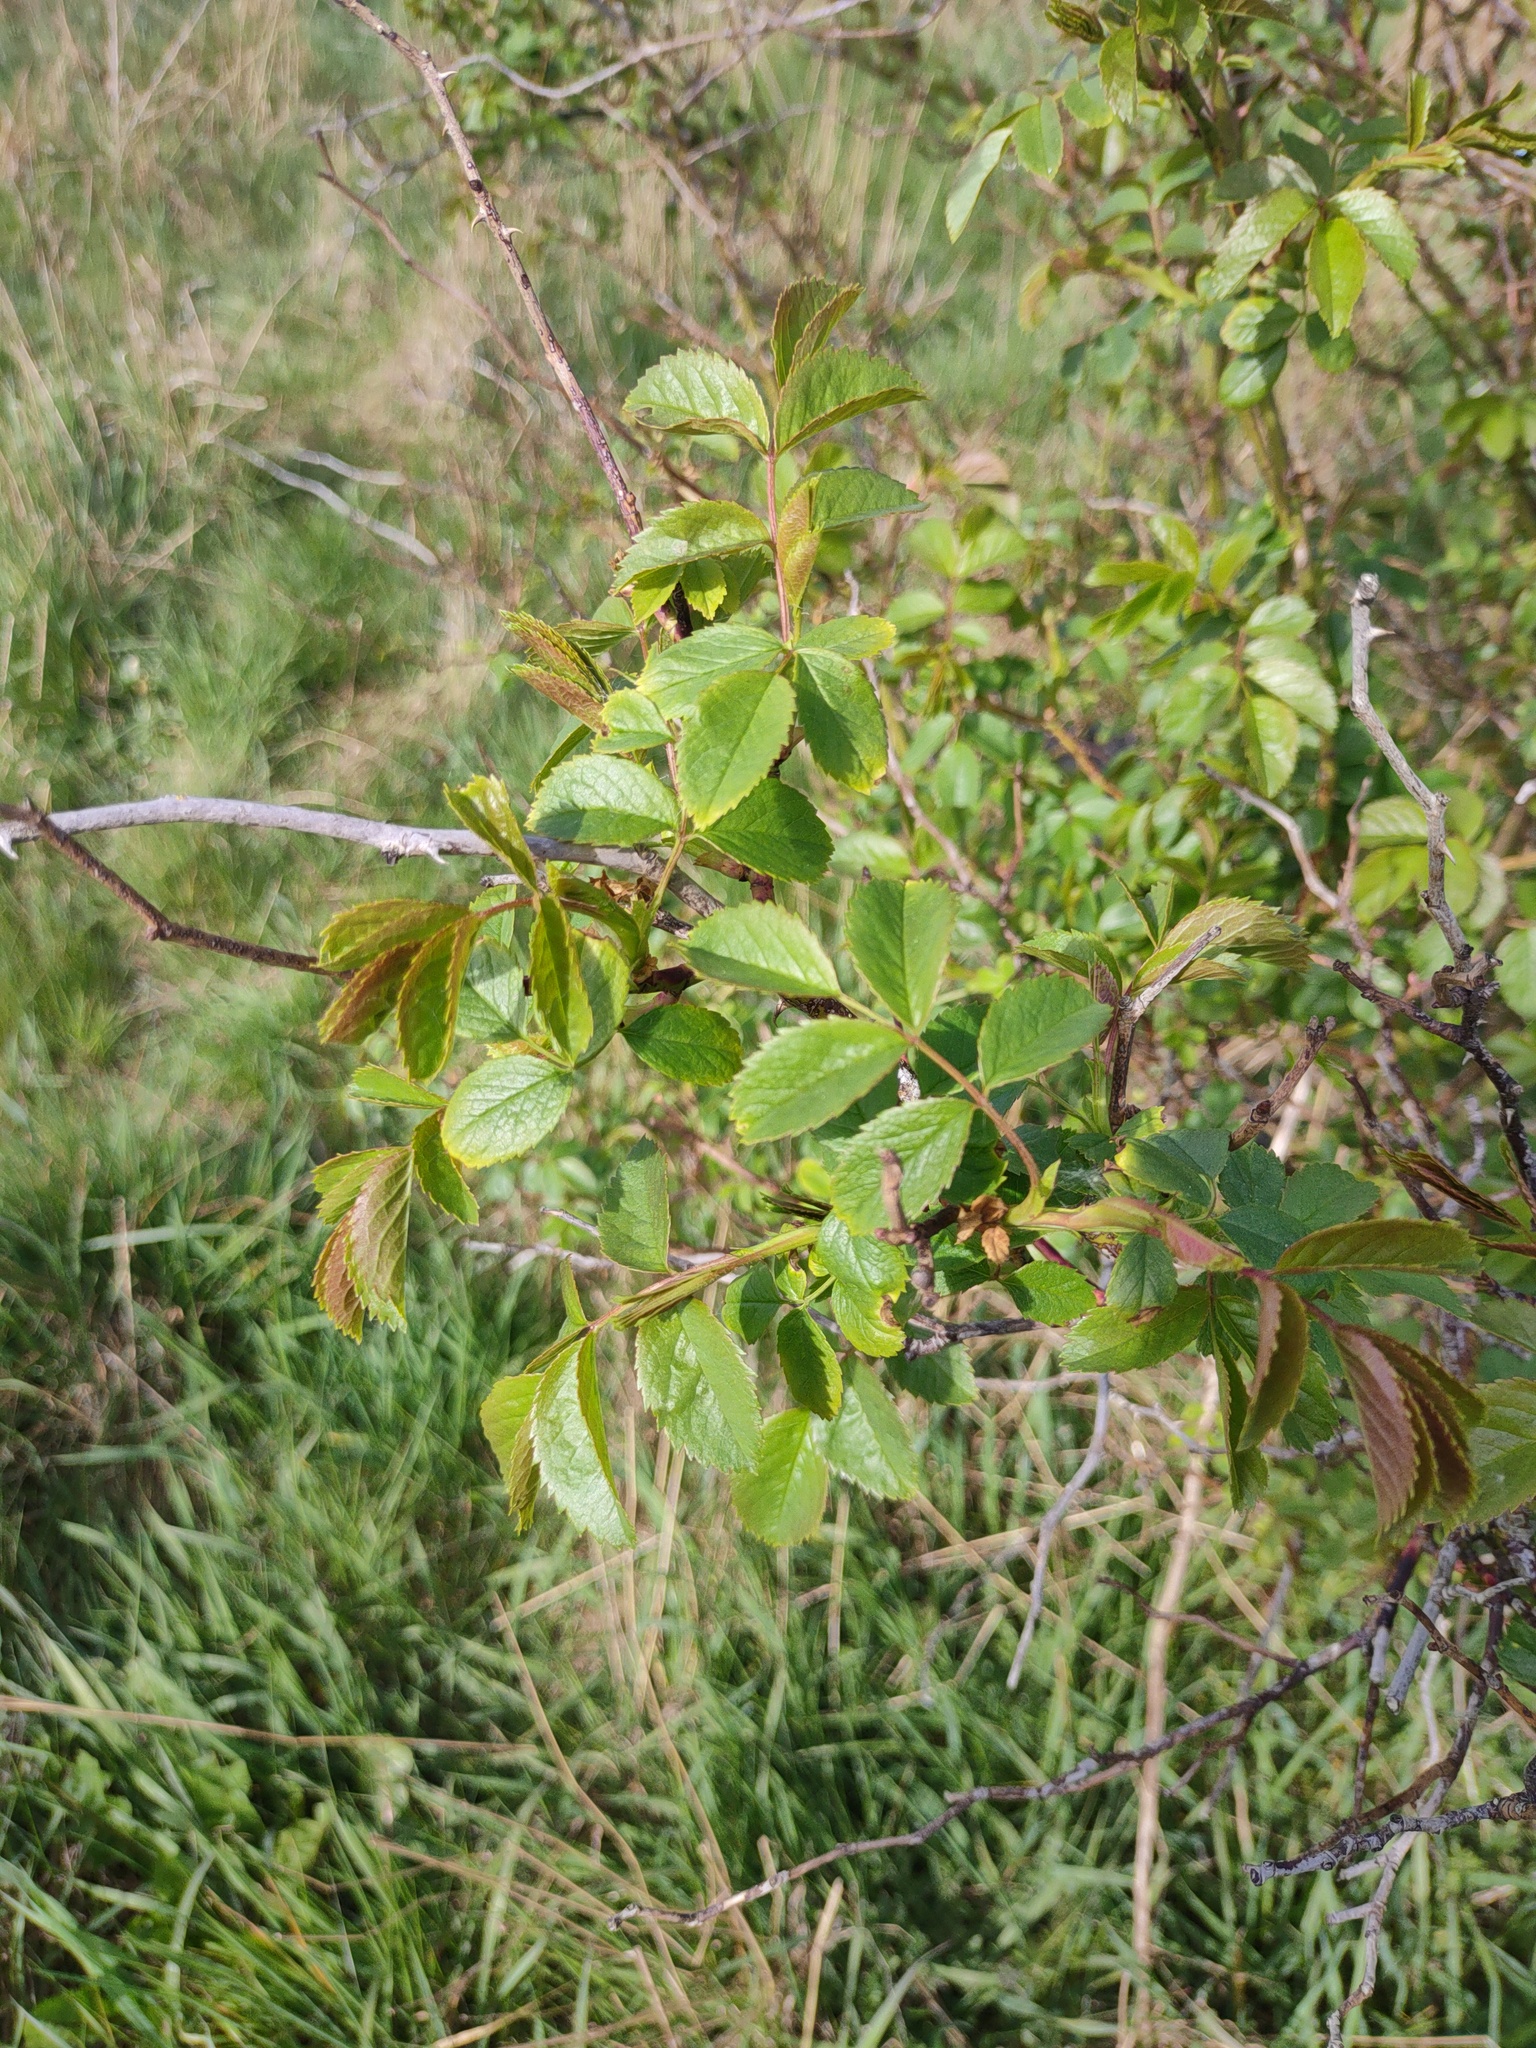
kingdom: Plantae
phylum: Tracheophyta
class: Magnoliopsida
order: Rosales
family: Rosaceae
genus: Rosa
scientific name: Rosa canina
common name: Dog rose
